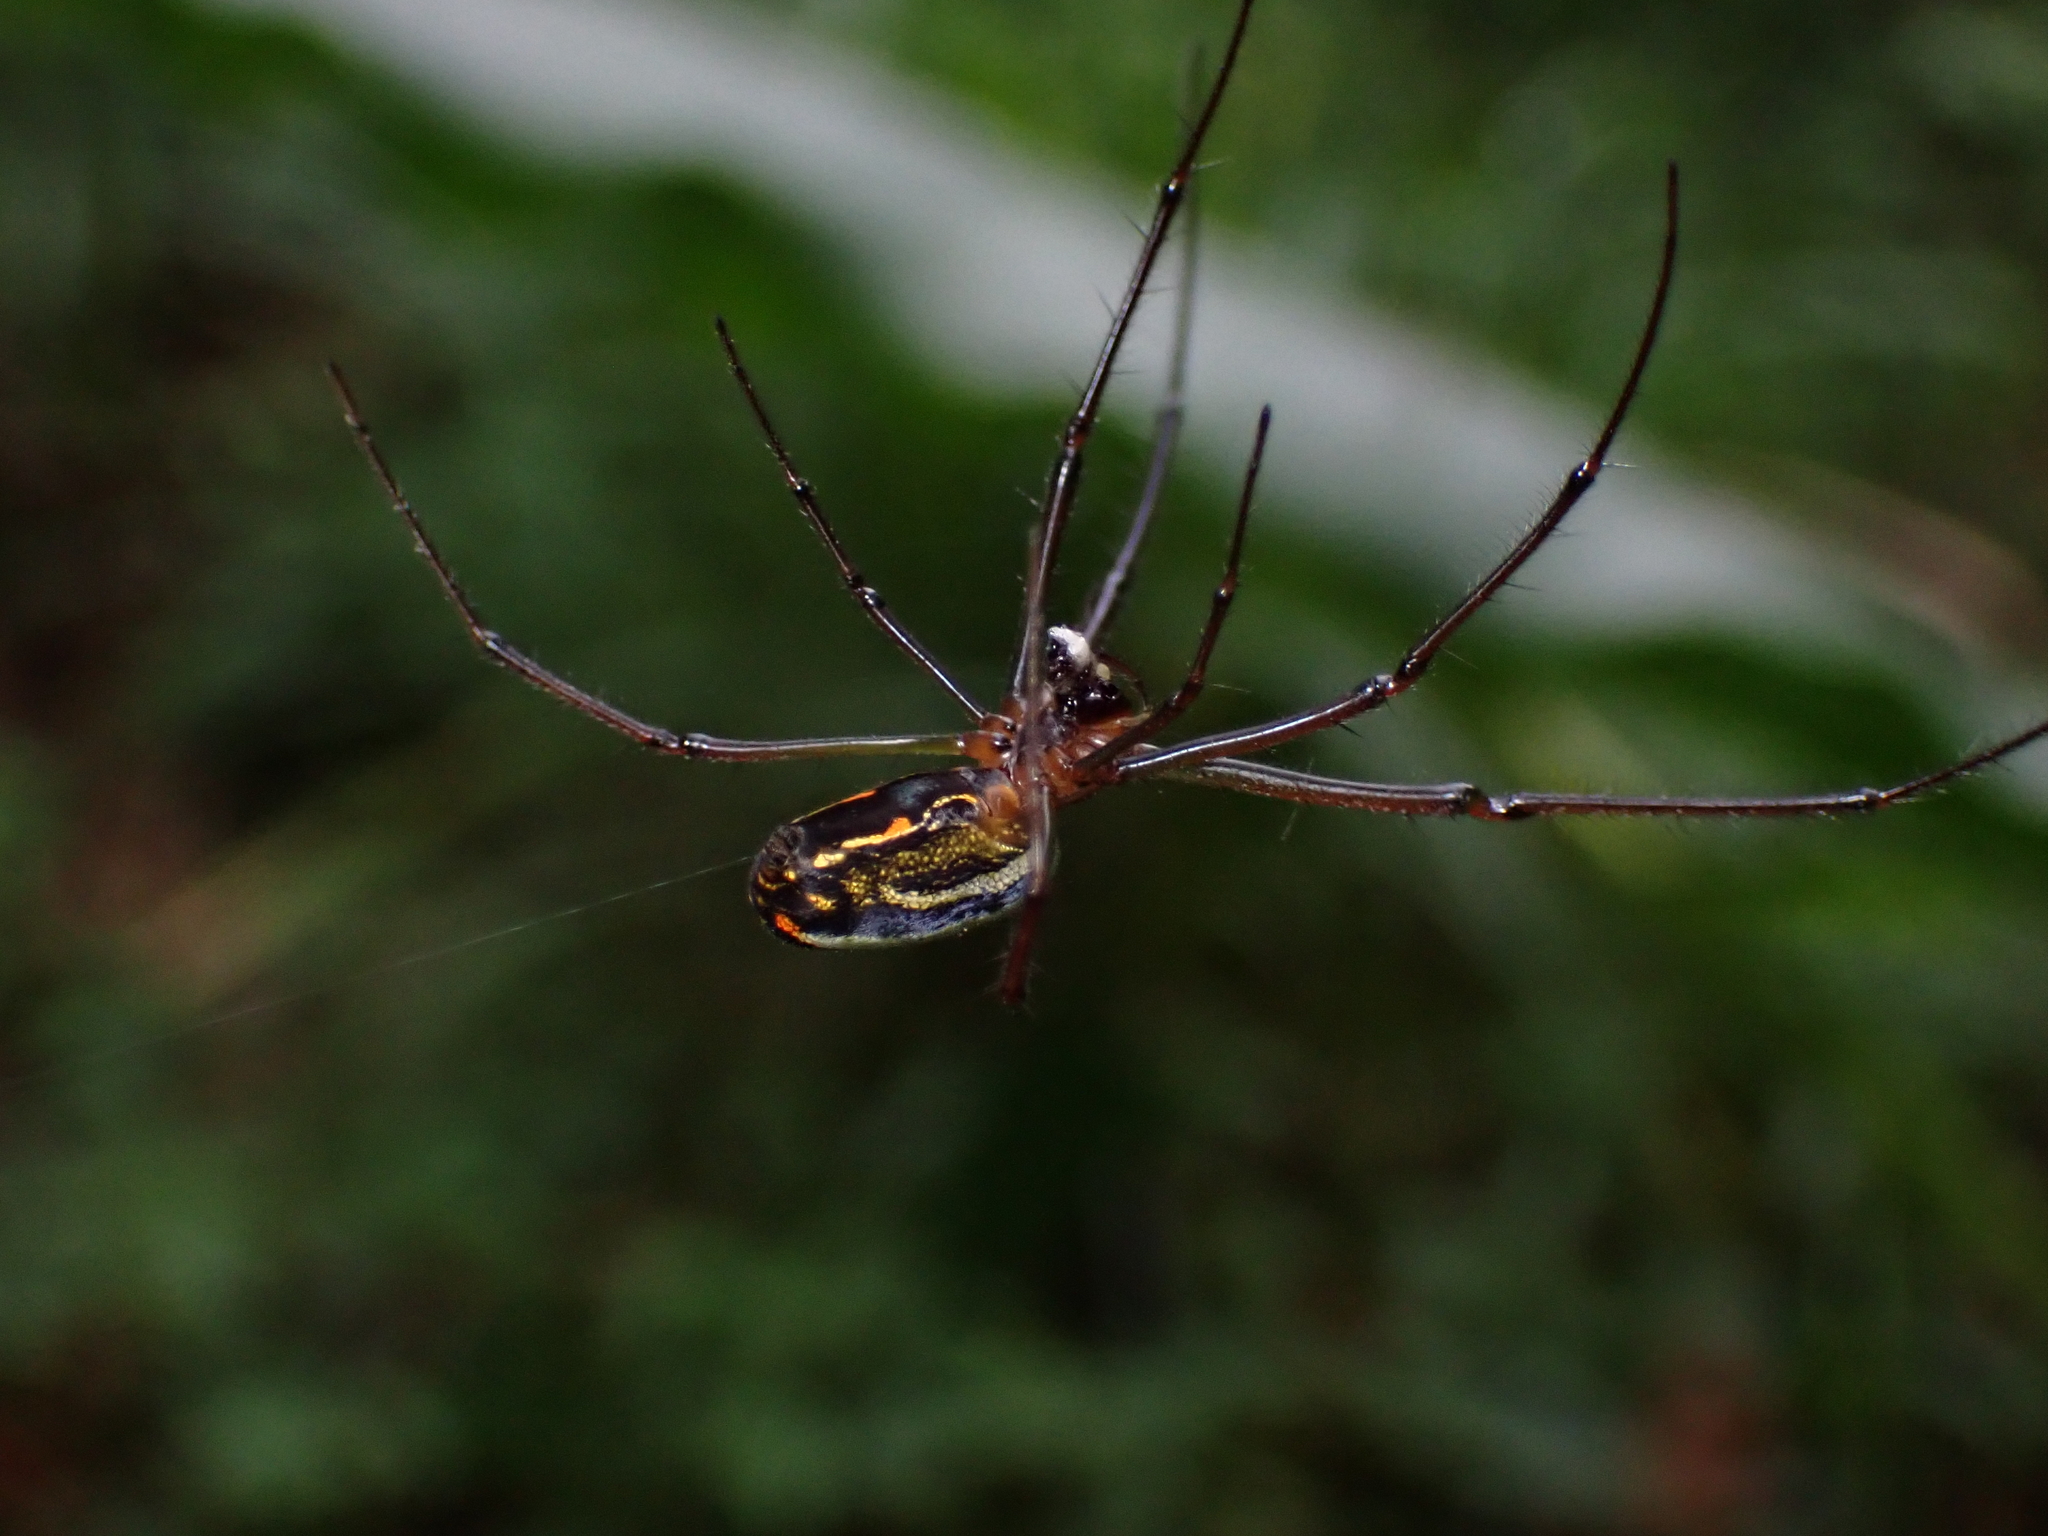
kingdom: Animalia
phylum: Arthropoda
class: Arachnida
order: Araneae
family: Tetragnathidae
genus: Leucauge
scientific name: Leucauge hebridisiana
